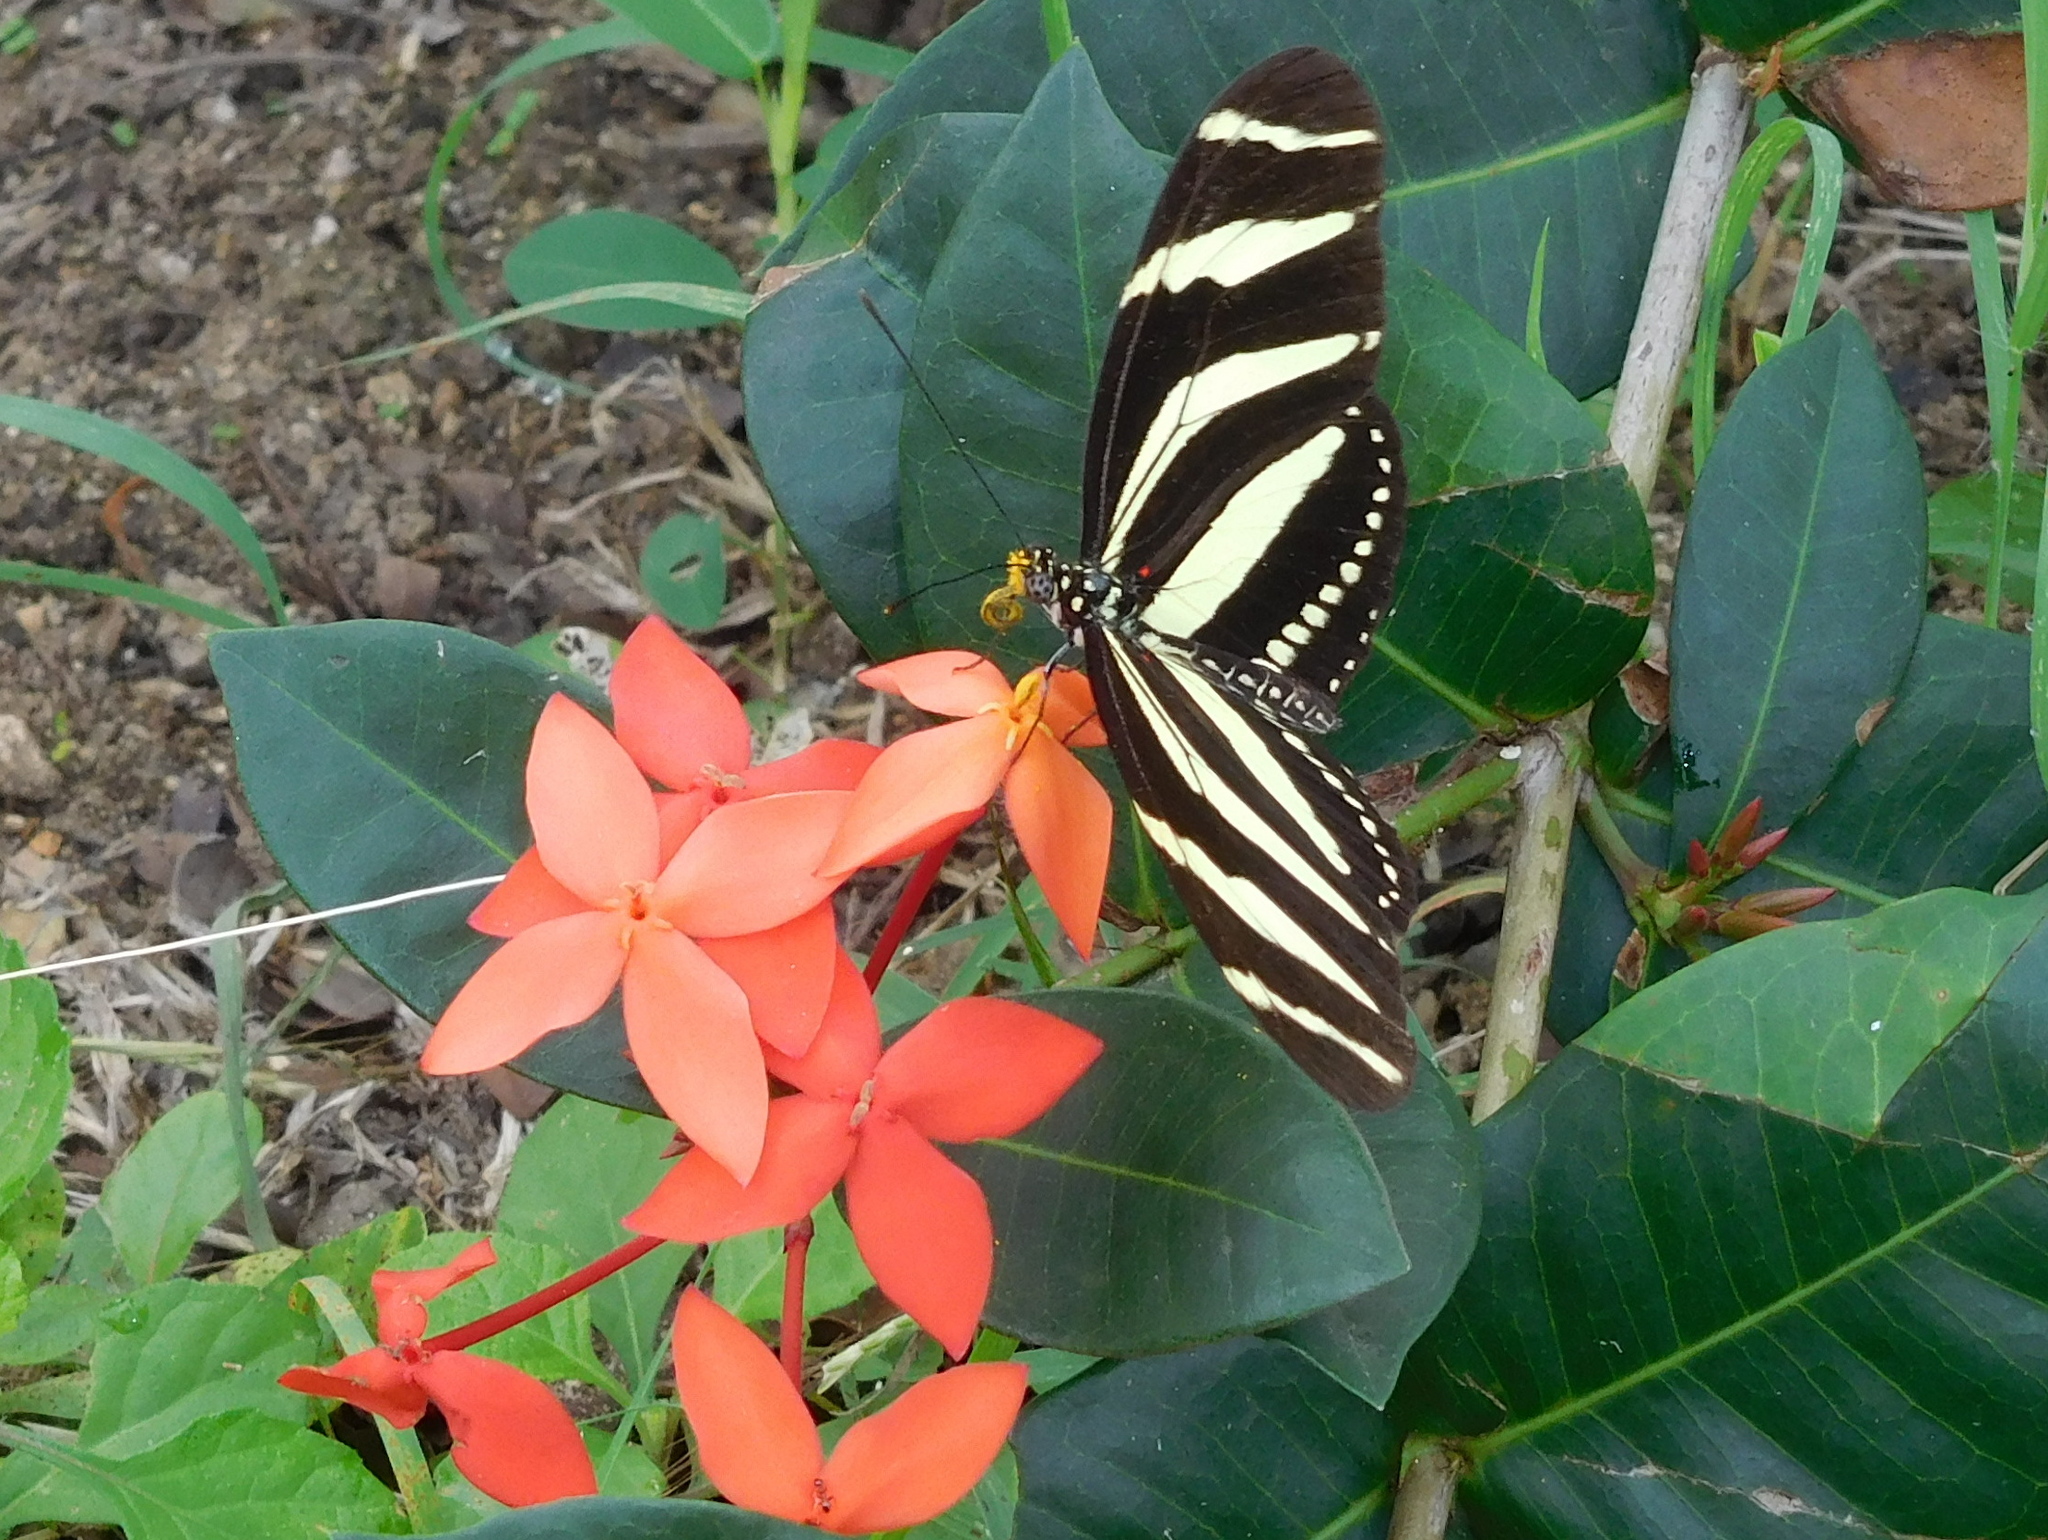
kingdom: Animalia
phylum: Arthropoda
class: Insecta
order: Lepidoptera
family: Nymphalidae
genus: Heliconius
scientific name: Heliconius charithonia
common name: Zebra long wing
